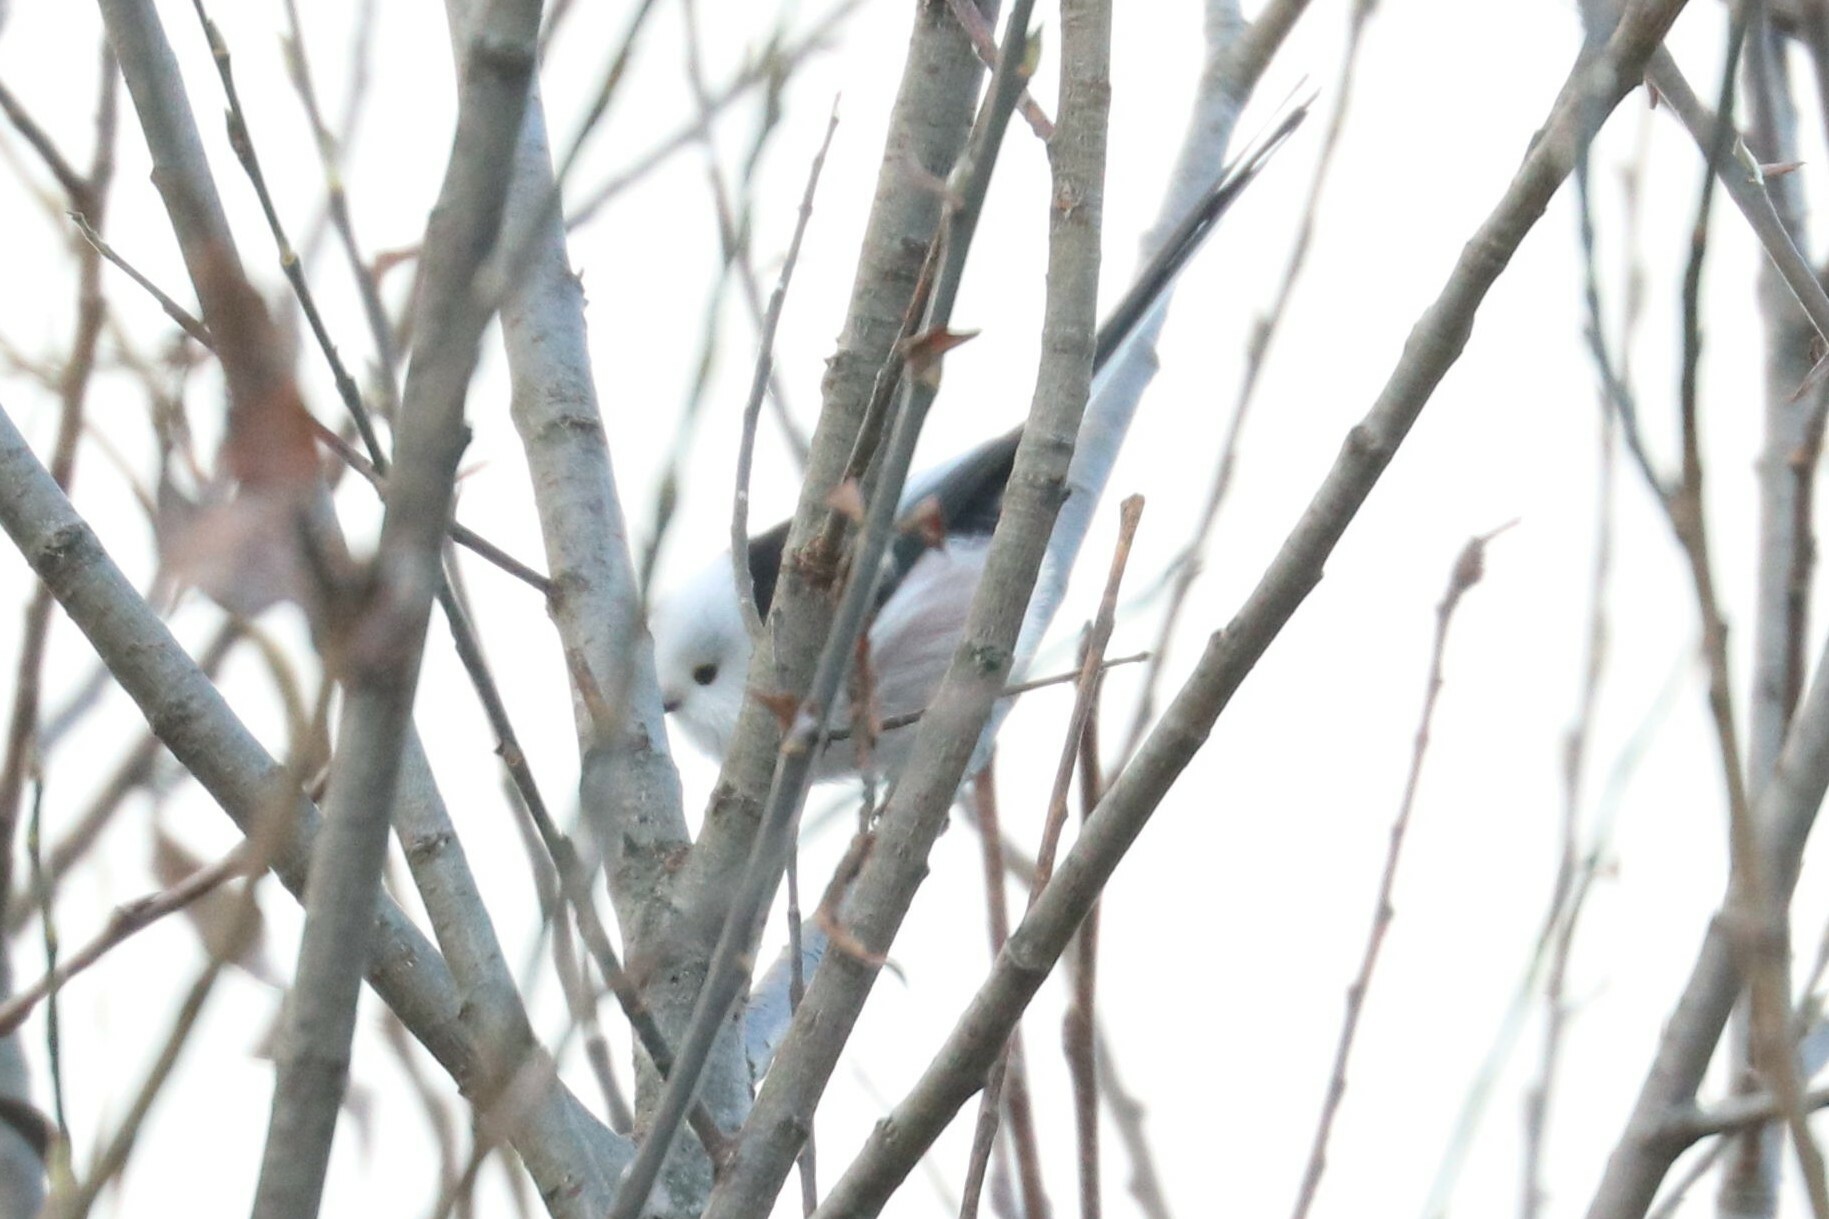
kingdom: Animalia
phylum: Chordata
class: Aves
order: Passeriformes
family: Aegithalidae
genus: Aegithalos
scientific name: Aegithalos caudatus
